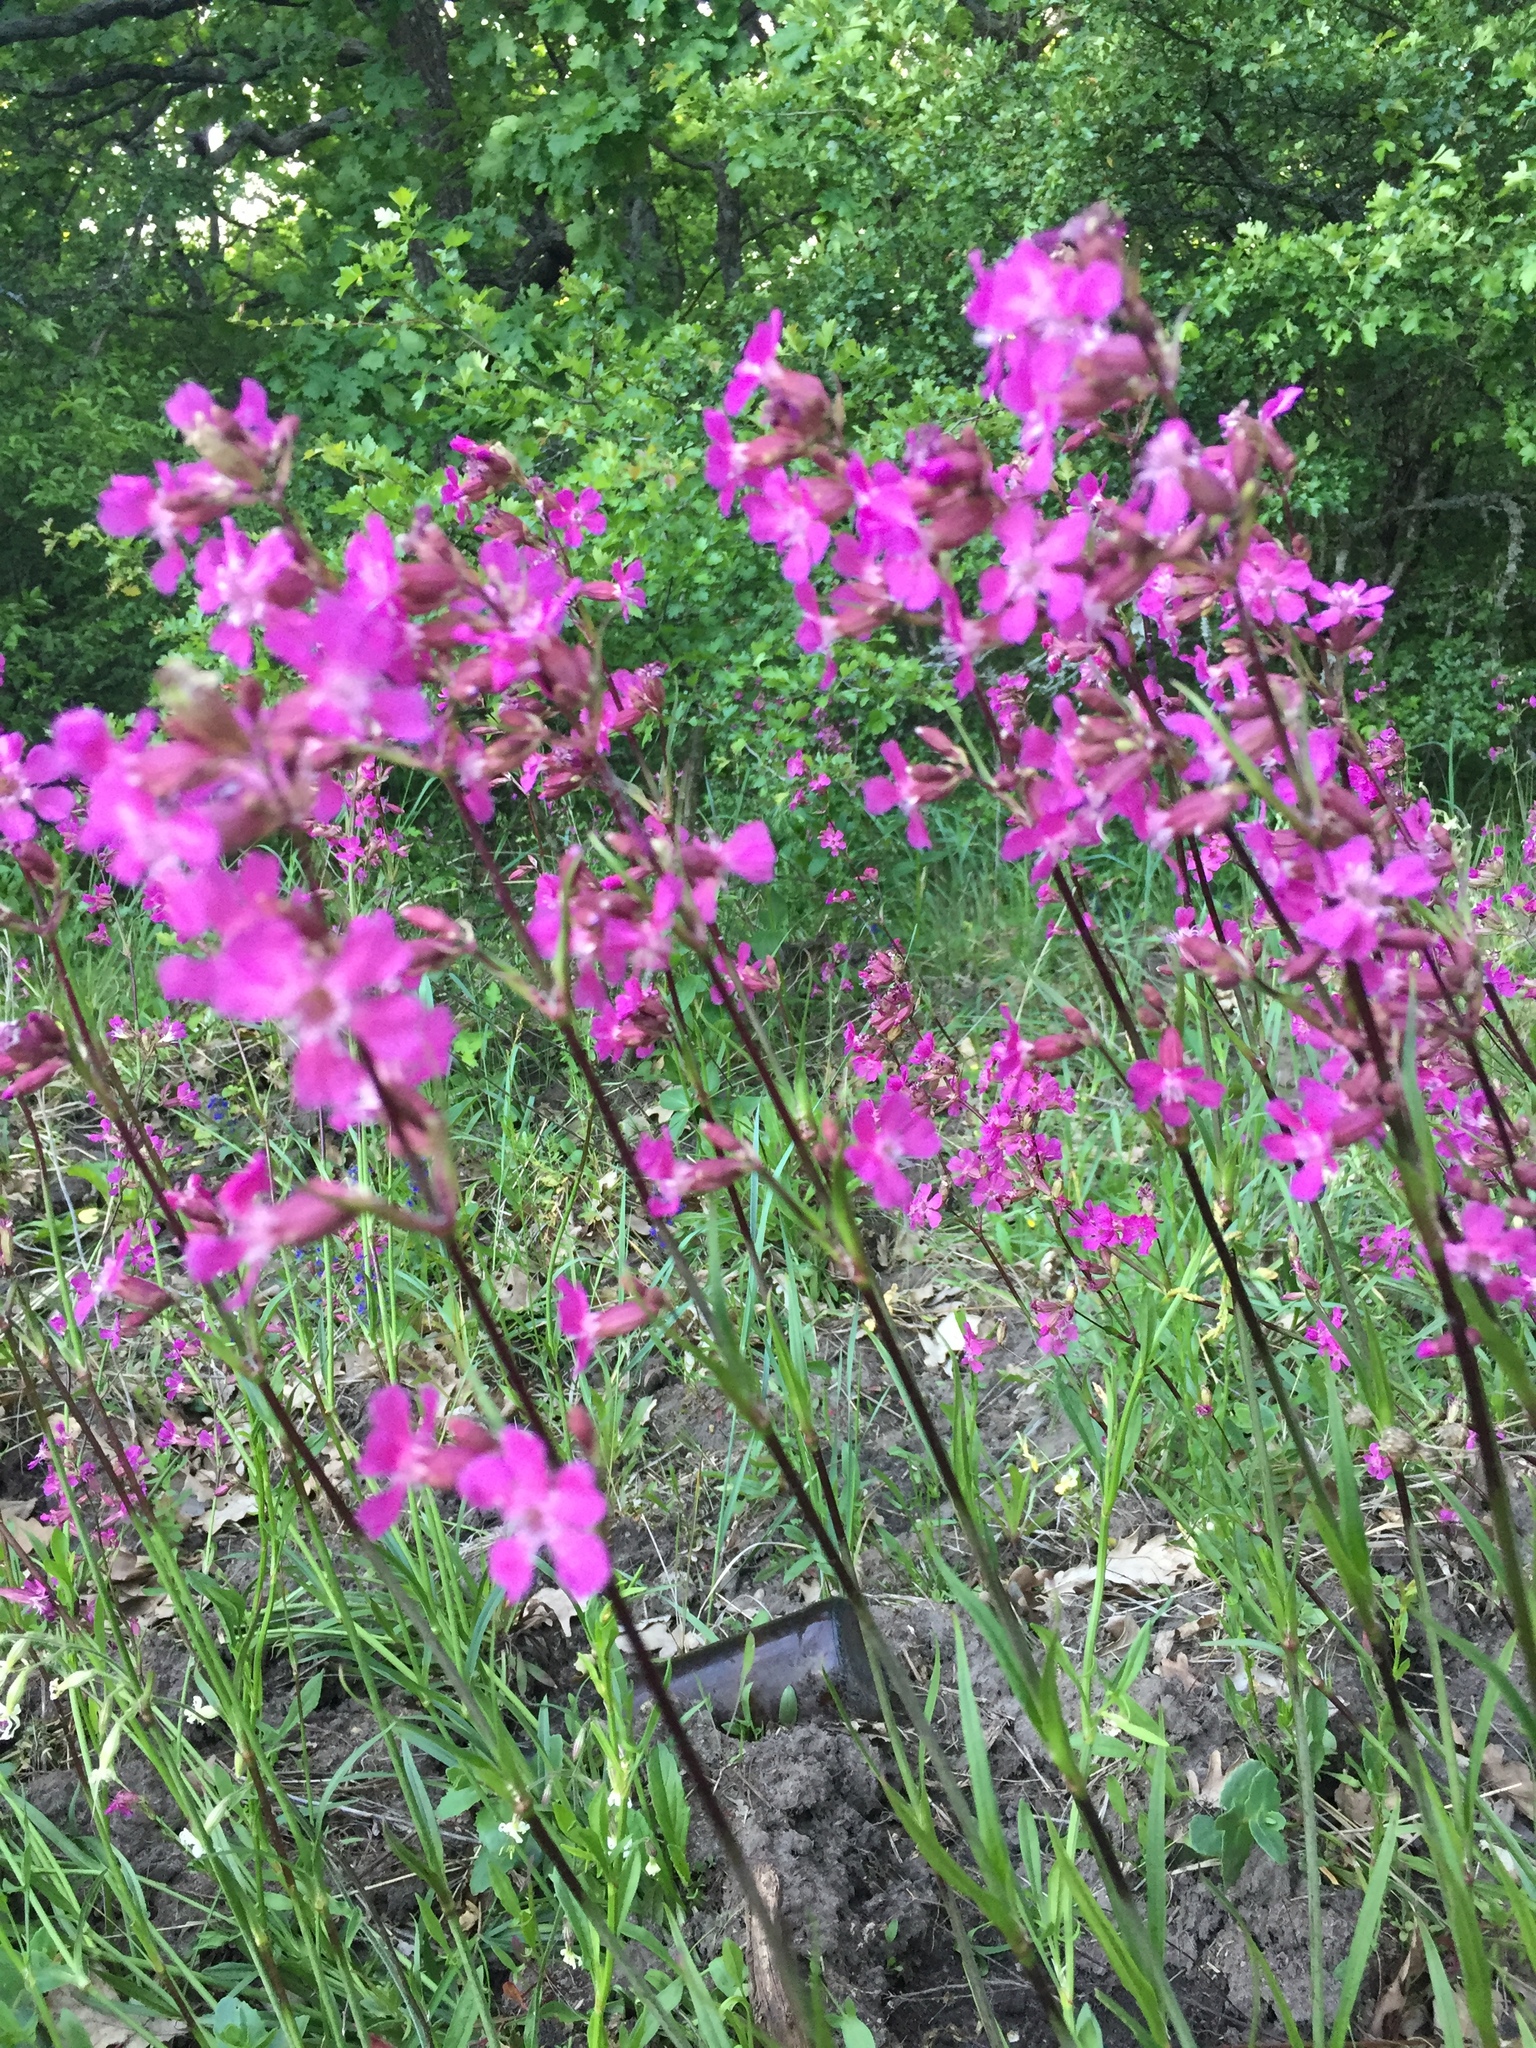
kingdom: Plantae
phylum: Tracheophyta
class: Magnoliopsida
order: Caryophyllales
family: Caryophyllaceae
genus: Viscaria
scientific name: Viscaria vulgaris
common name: Clammy campion
